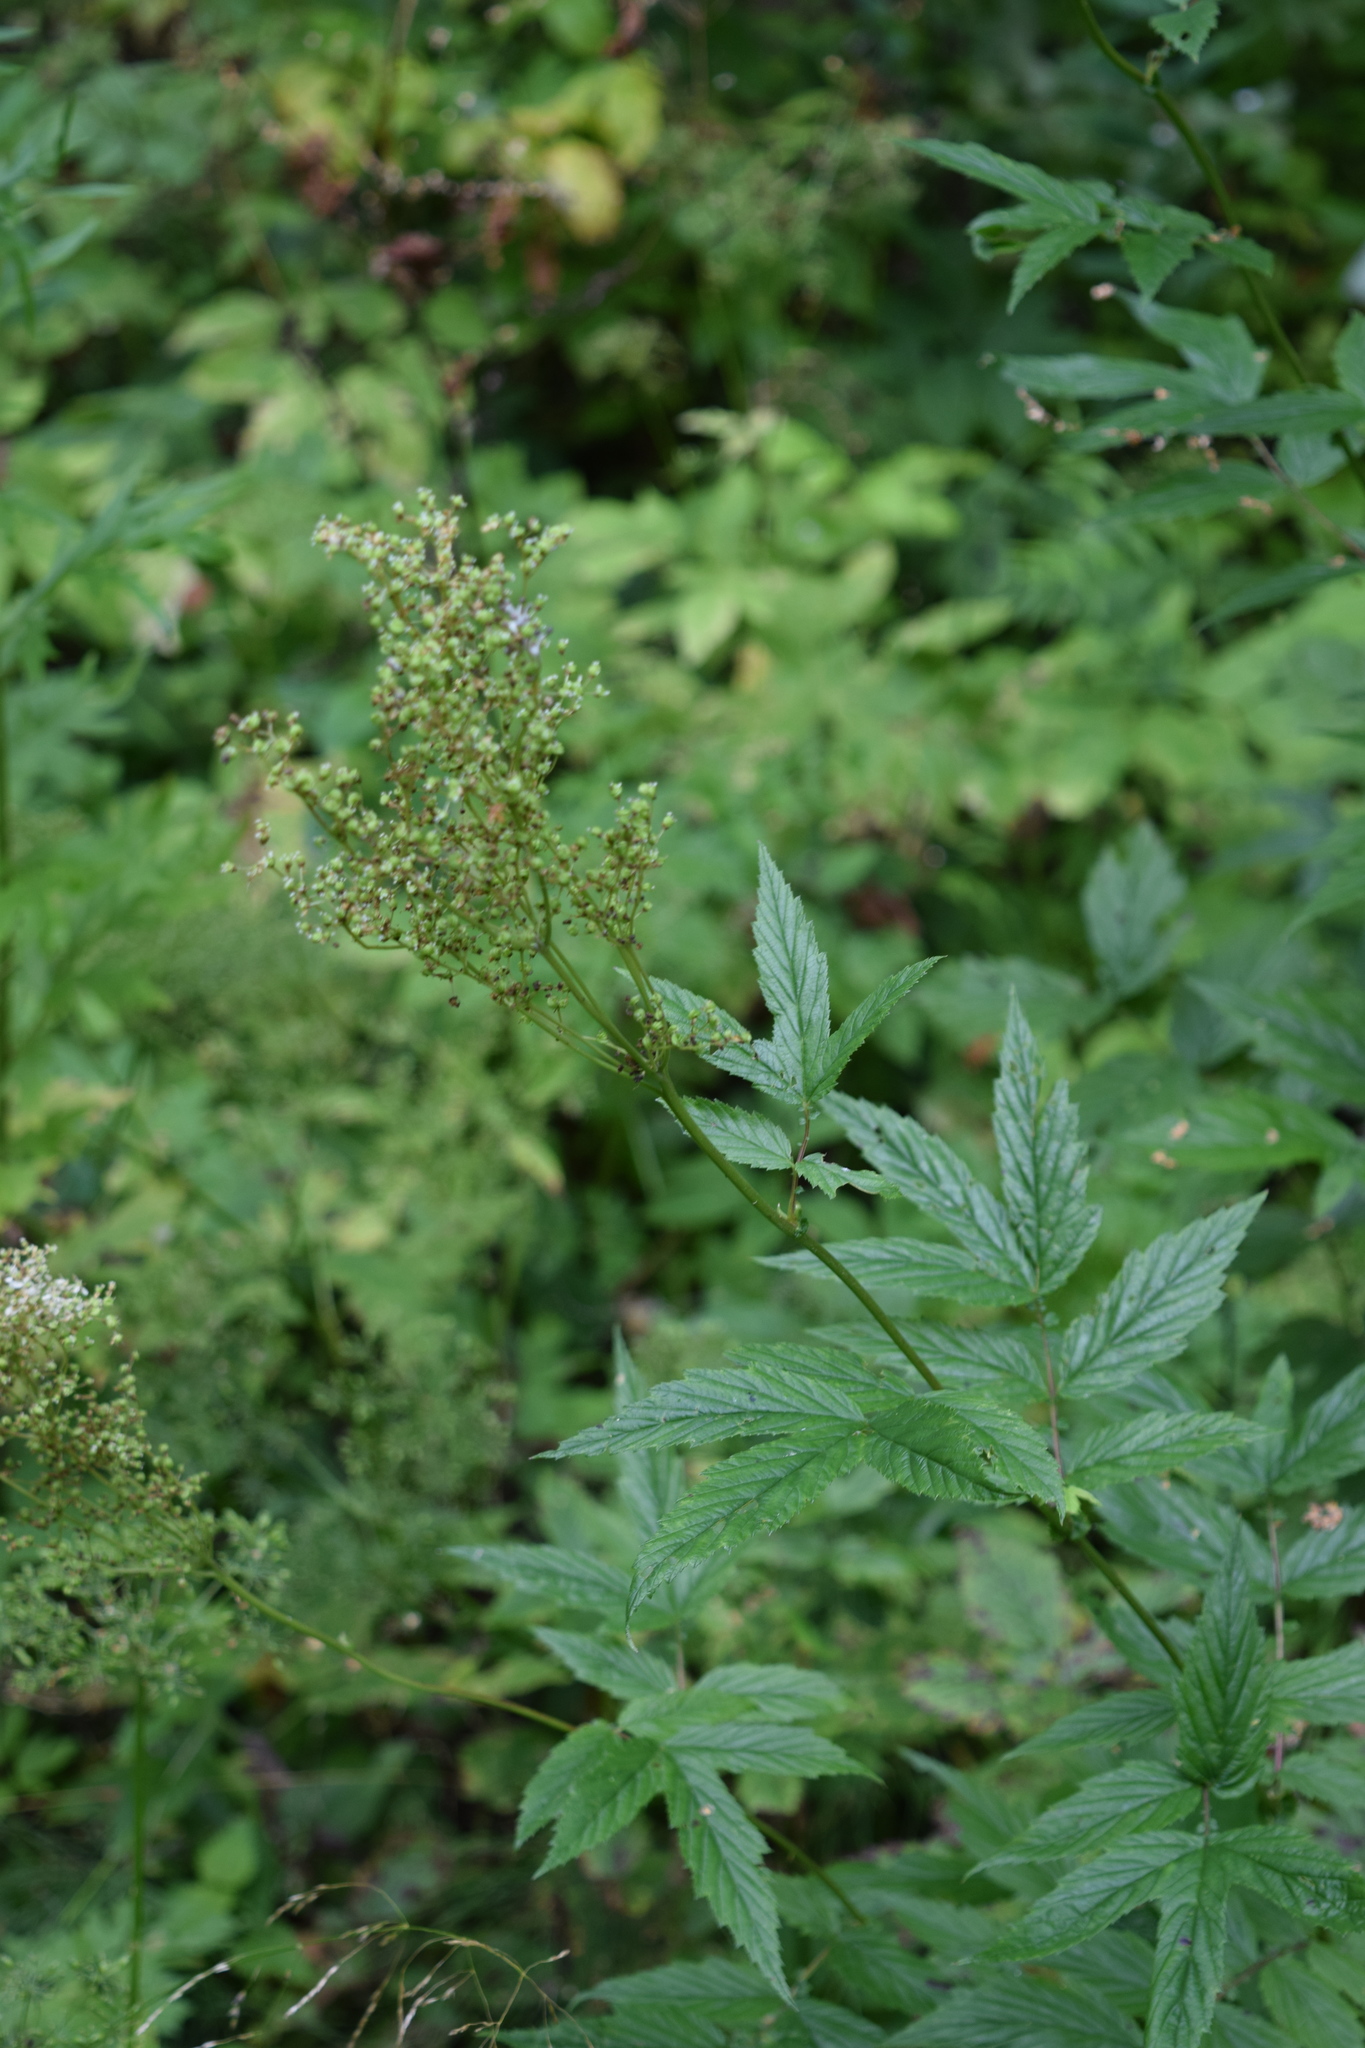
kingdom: Plantae
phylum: Tracheophyta
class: Magnoliopsida
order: Rosales
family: Rosaceae
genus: Filipendula
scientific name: Filipendula ulmaria
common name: Meadowsweet
